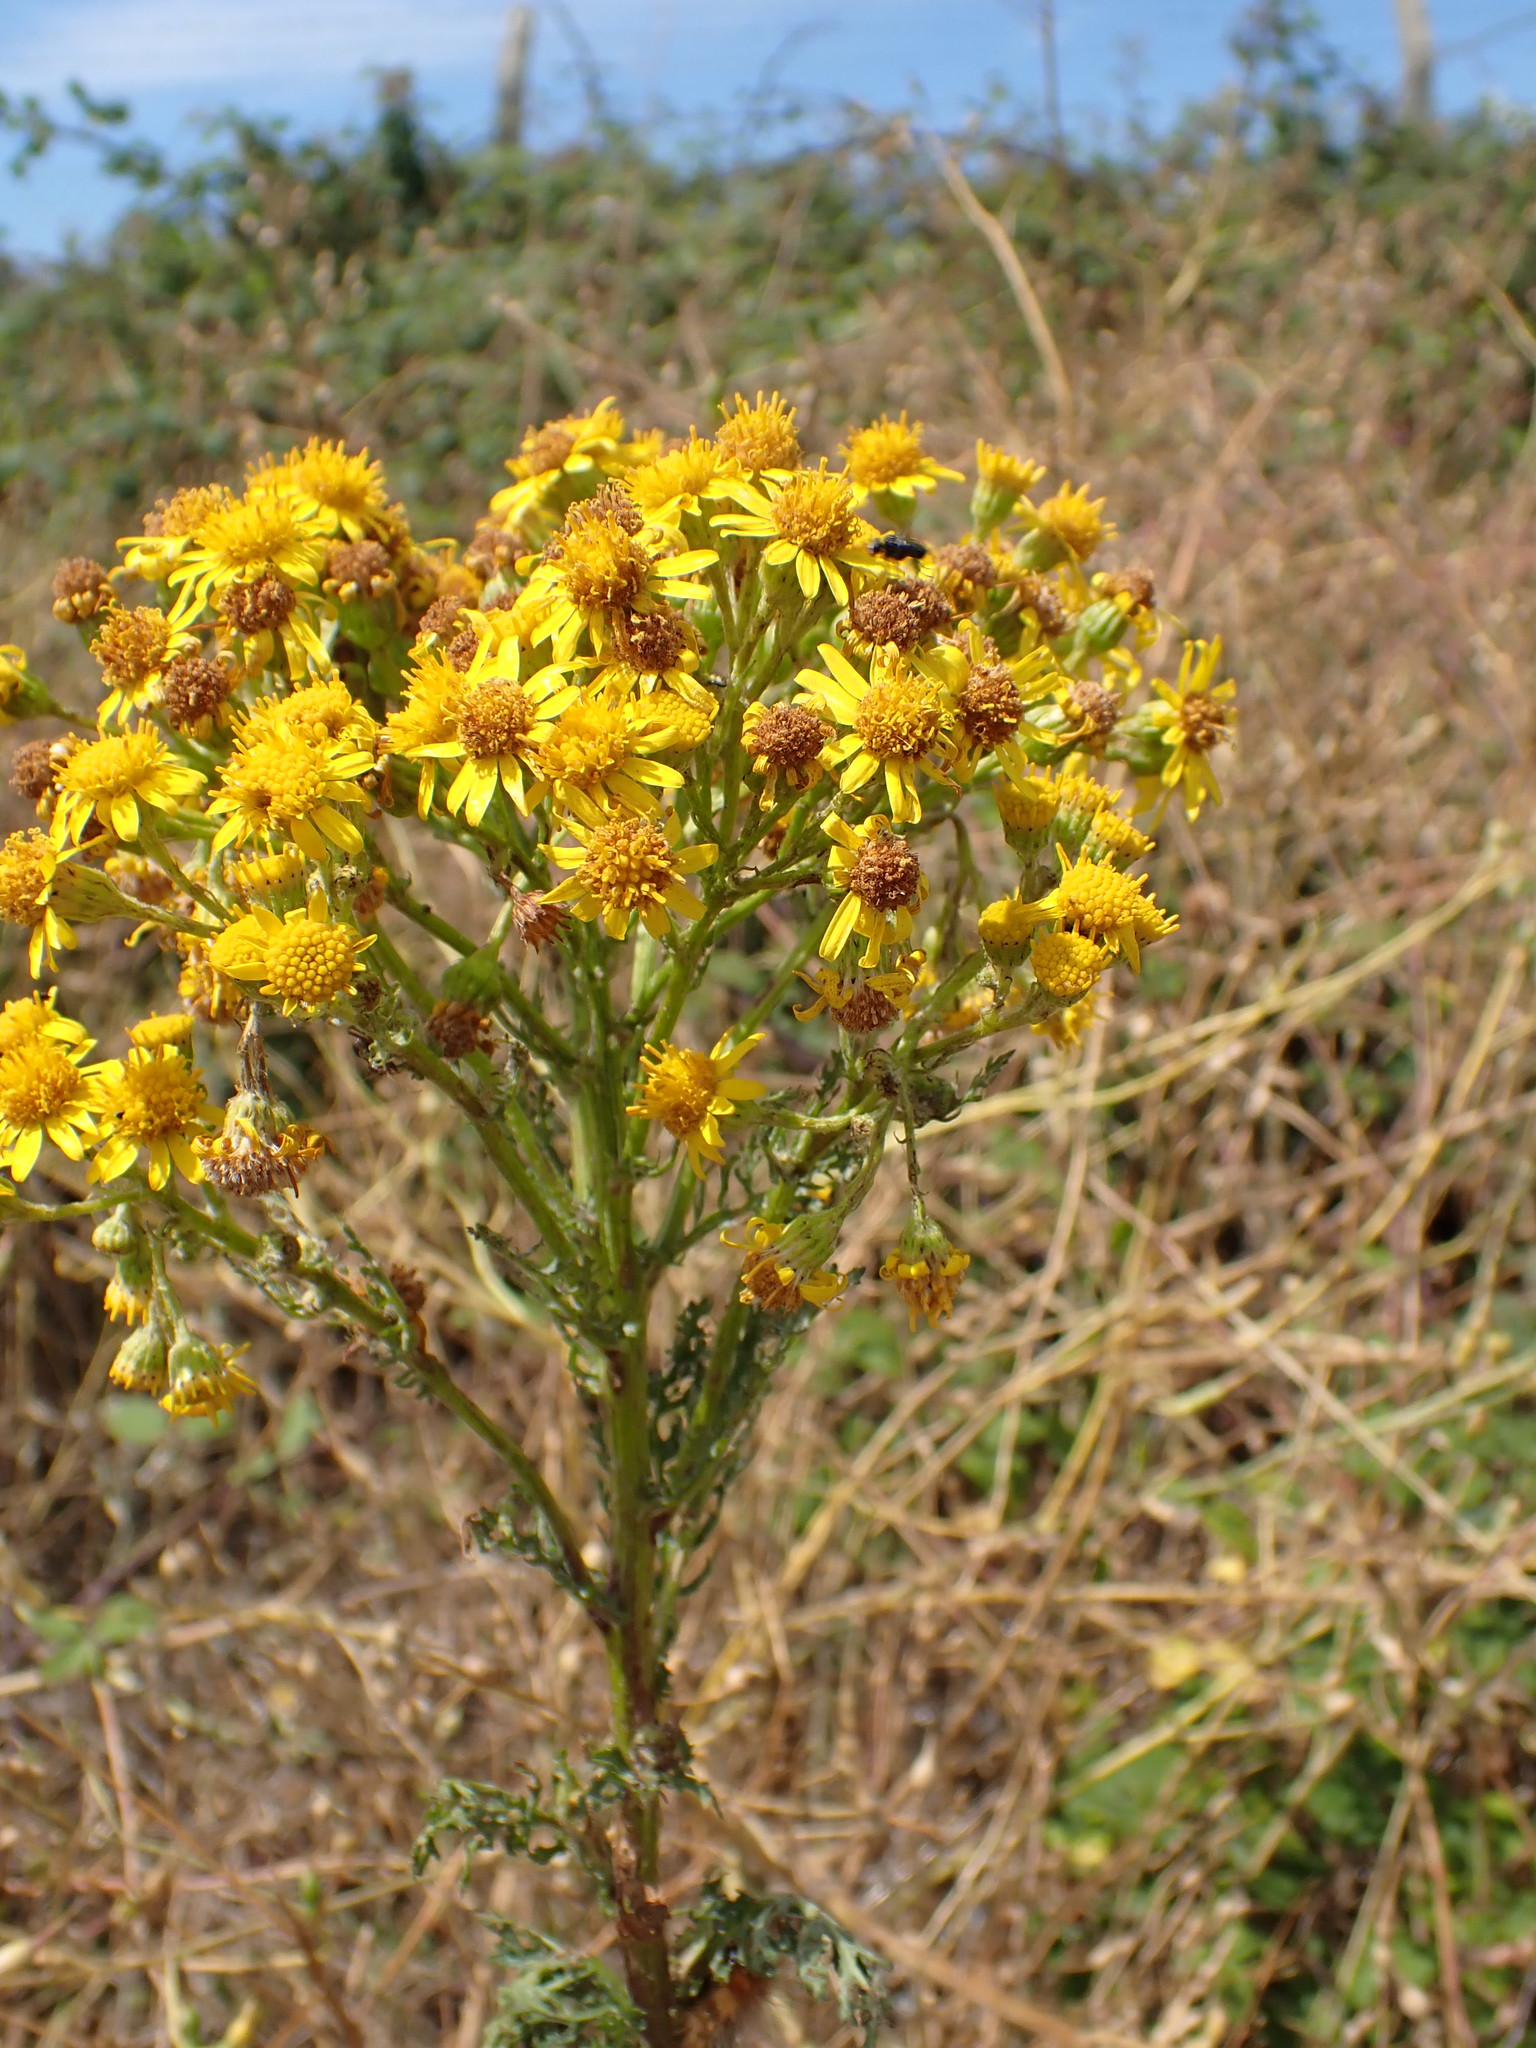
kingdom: Plantae
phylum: Tracheophyta
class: Magnoliopsida
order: Asterales
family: Asteraceae
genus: Jacobaea
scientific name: Jacobaea vulgaris
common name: Stinking willie
